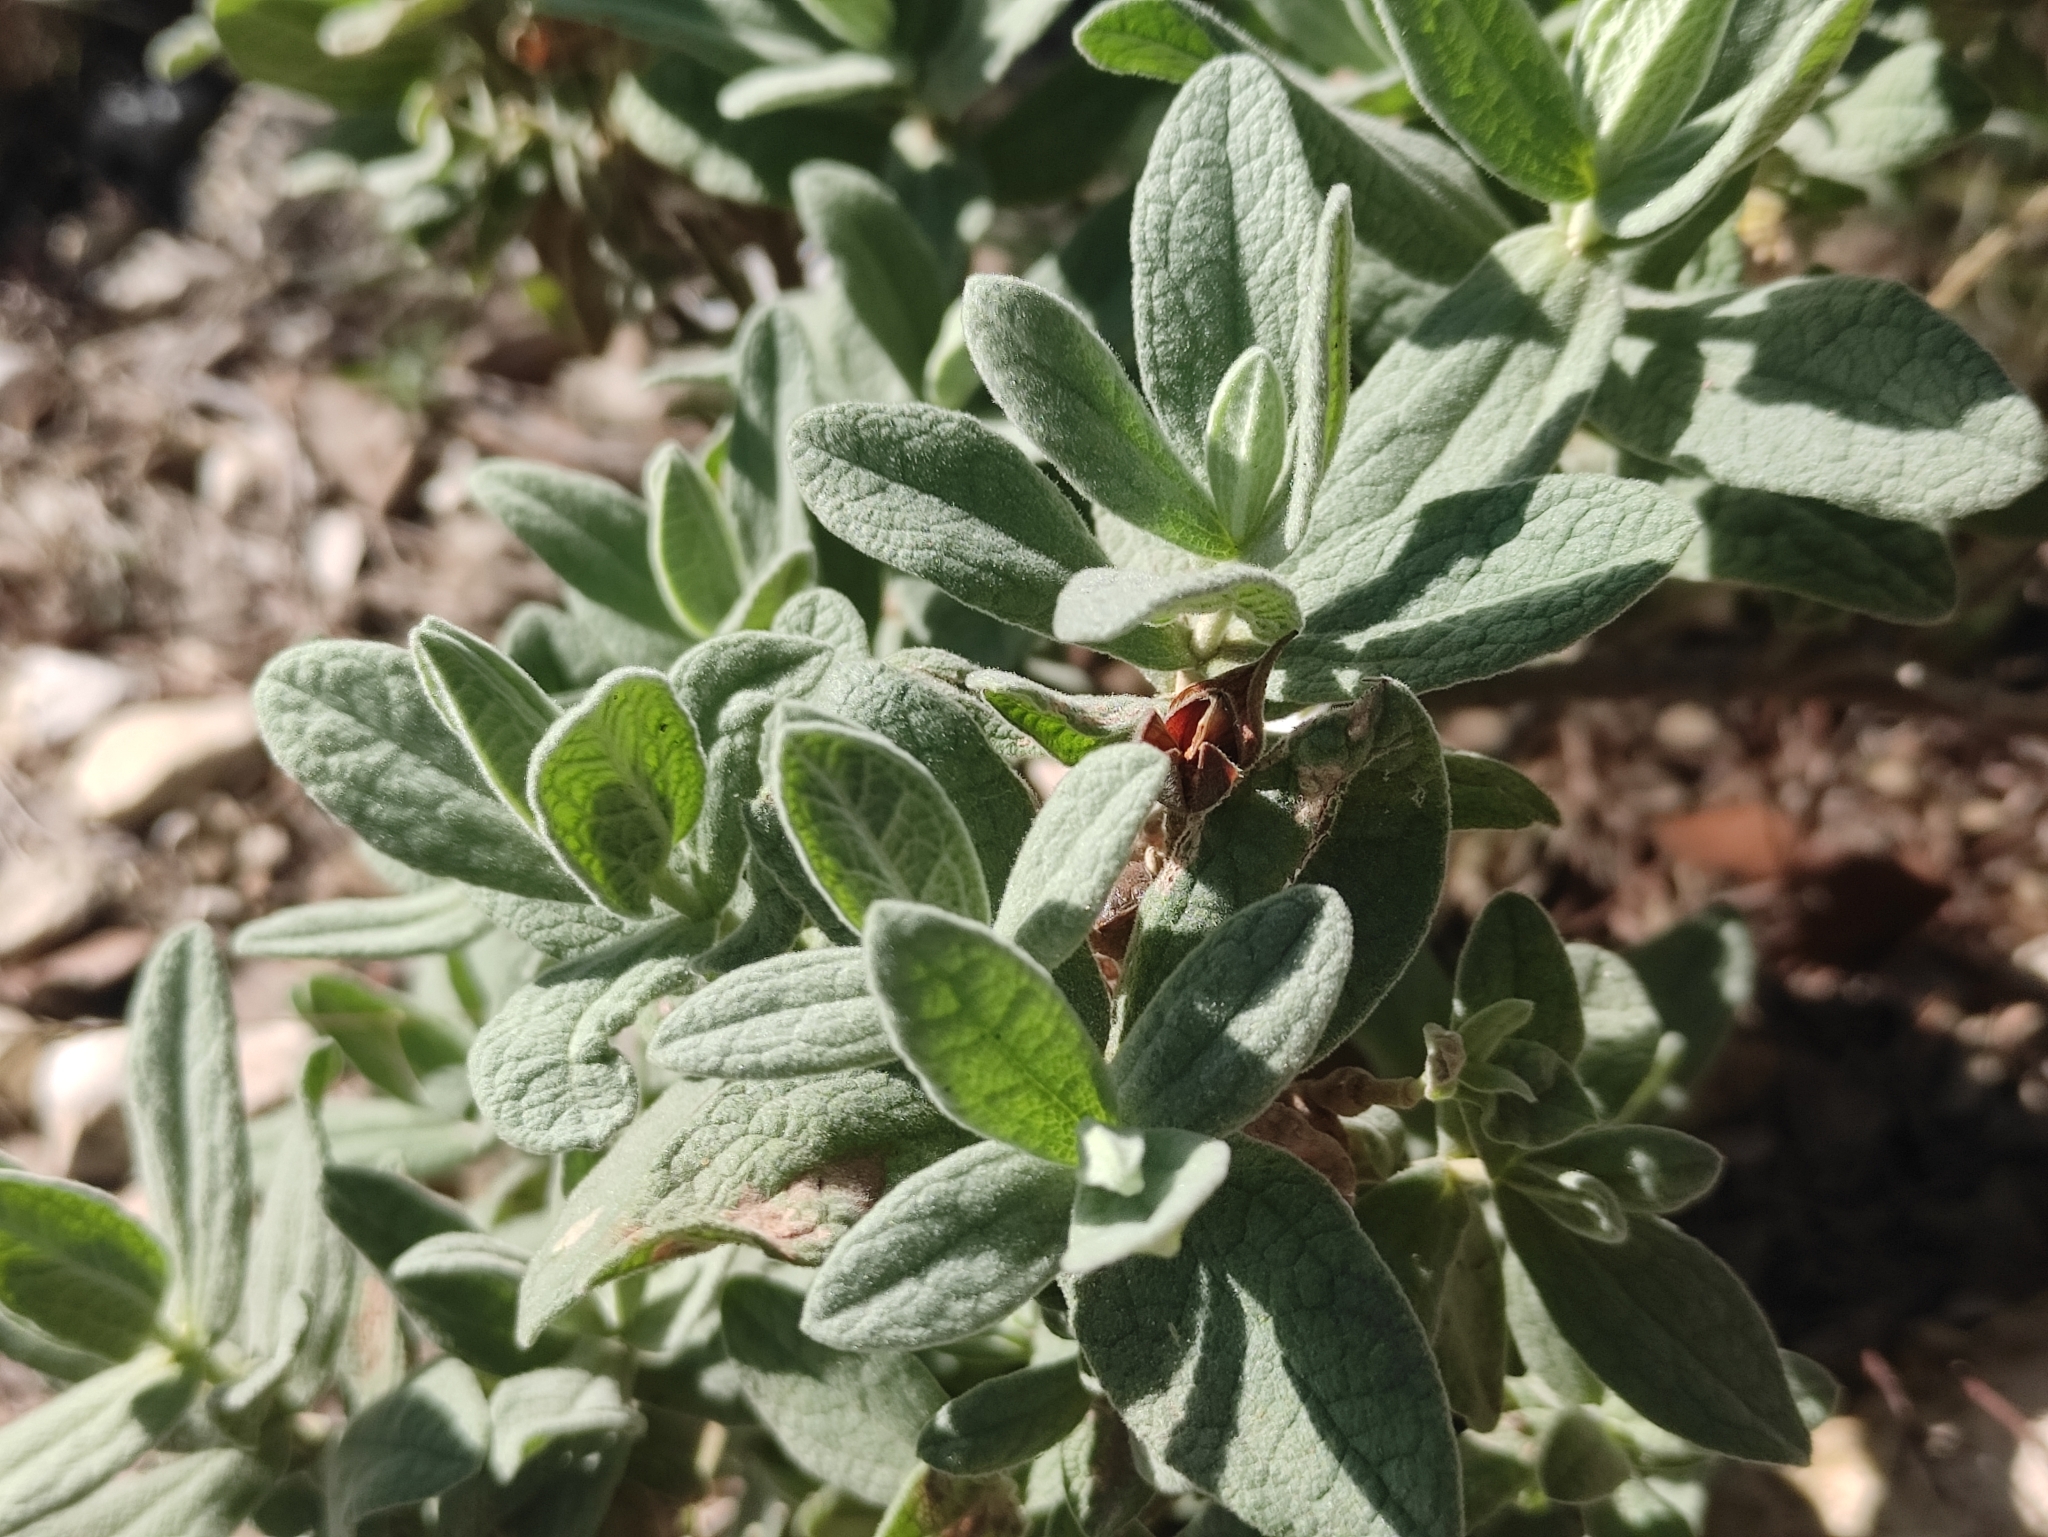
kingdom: Plantae
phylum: Tracheophyta
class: Magnoliopsida
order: Malvales
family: Cistaceae
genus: Cistus
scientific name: Cistus albidus
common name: White-leaf rock-rose
